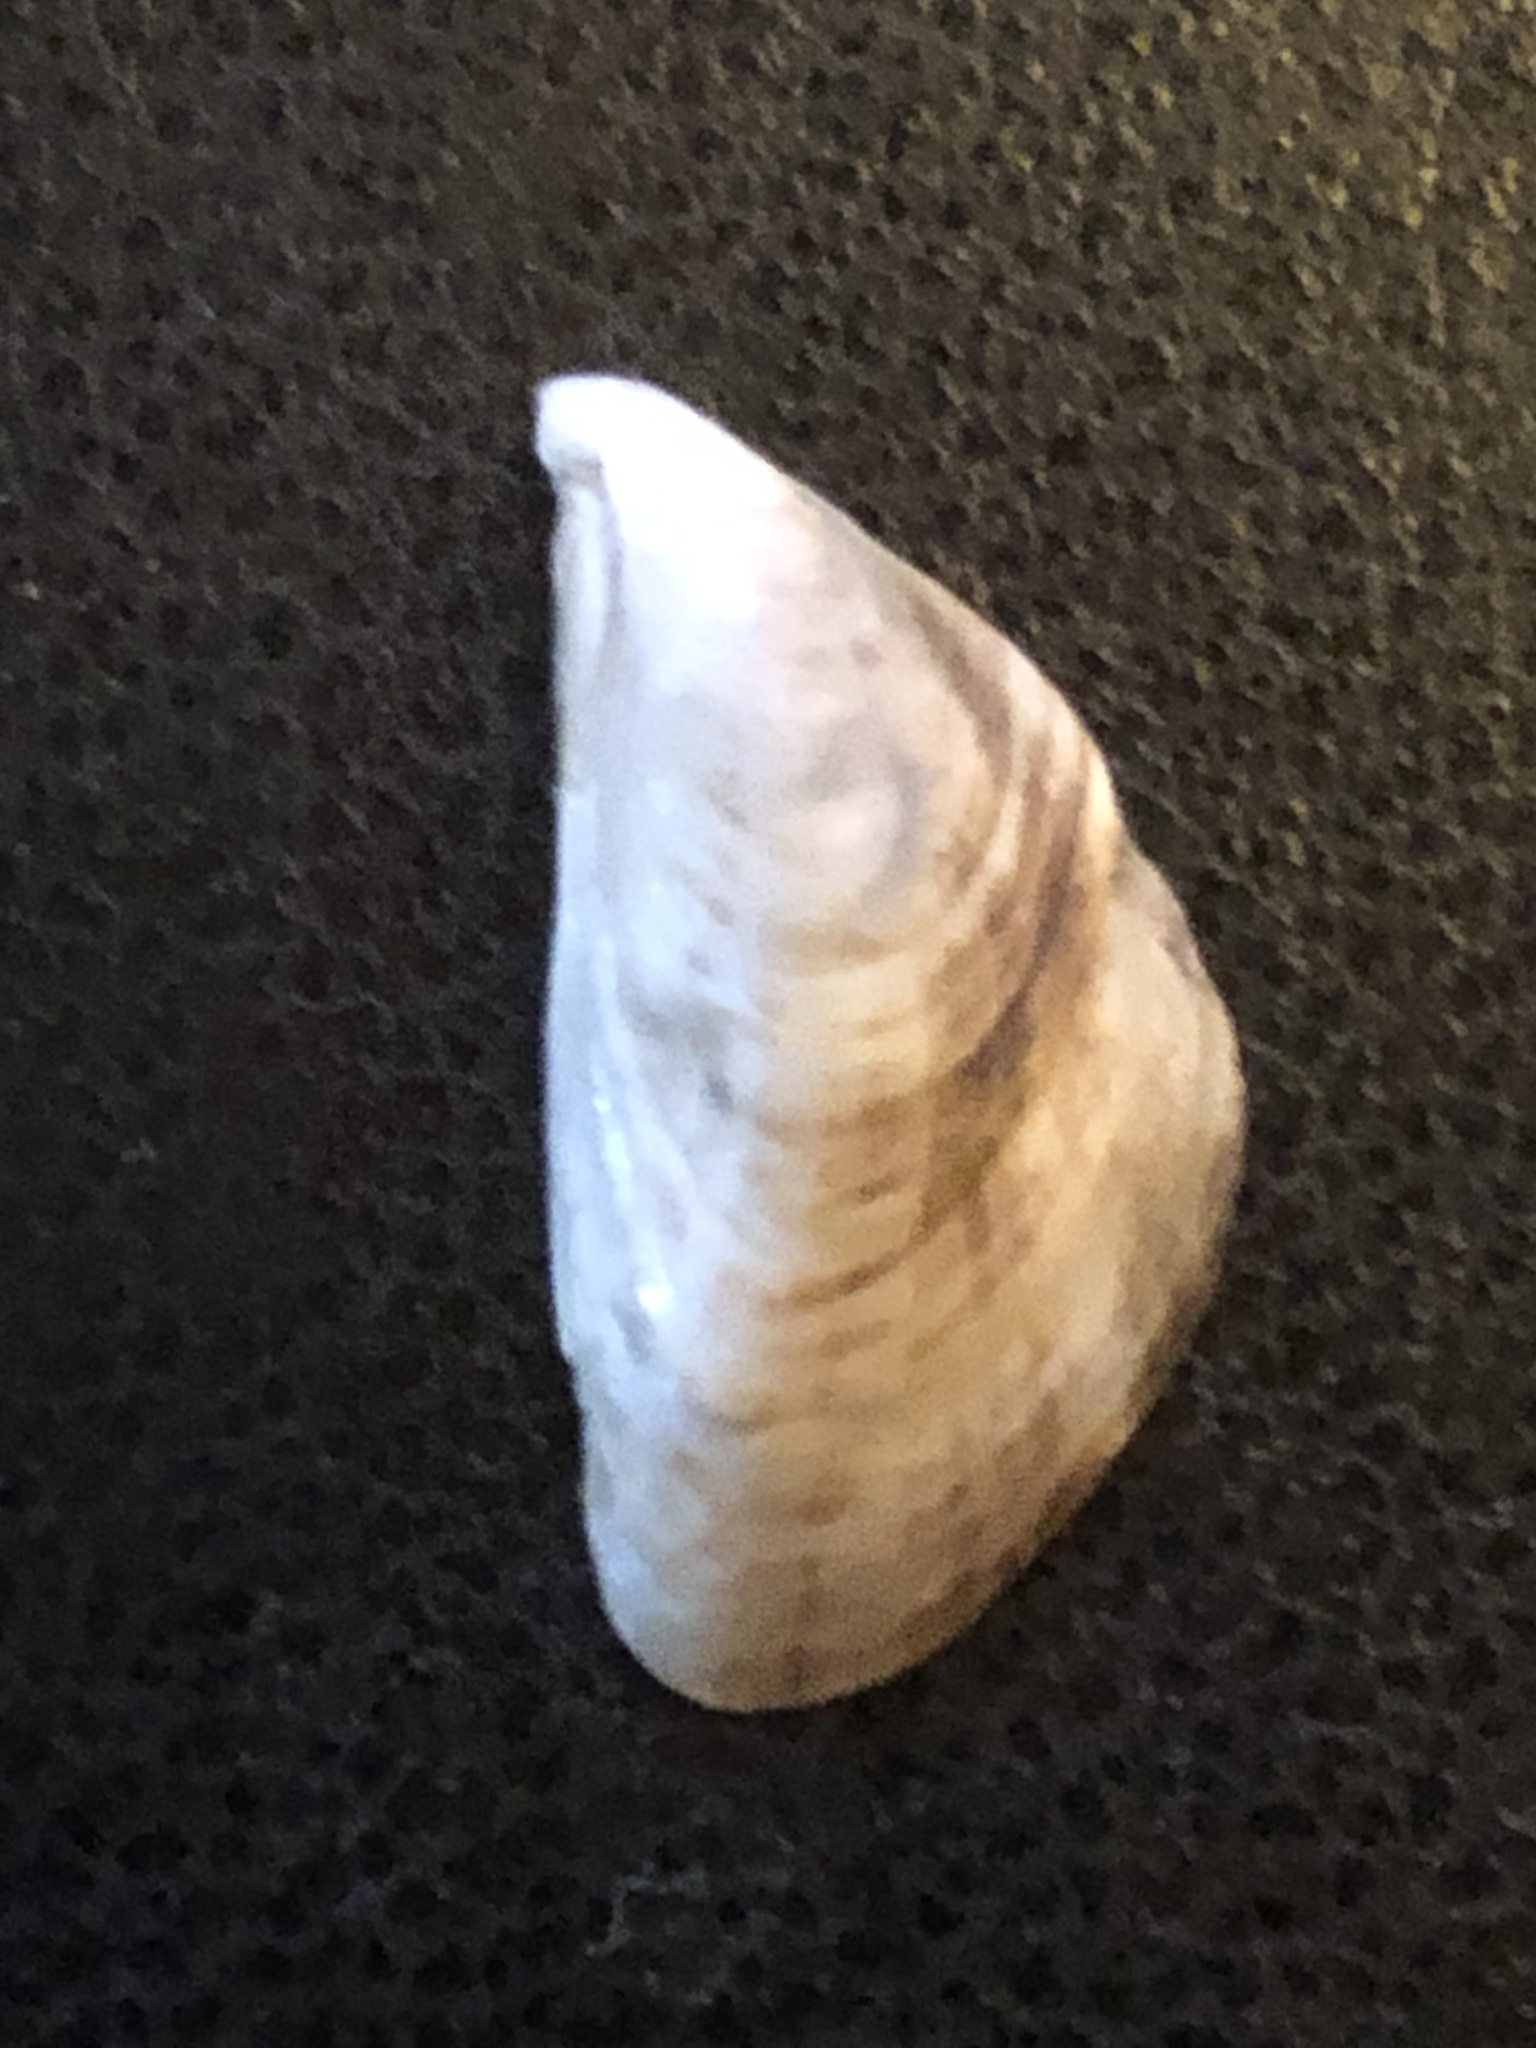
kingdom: Animalia
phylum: Mollusca
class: Bivalvia
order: Myida
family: Dreissenidae
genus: Dreissena
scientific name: Dreissena bugensis
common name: Quagga mussel
